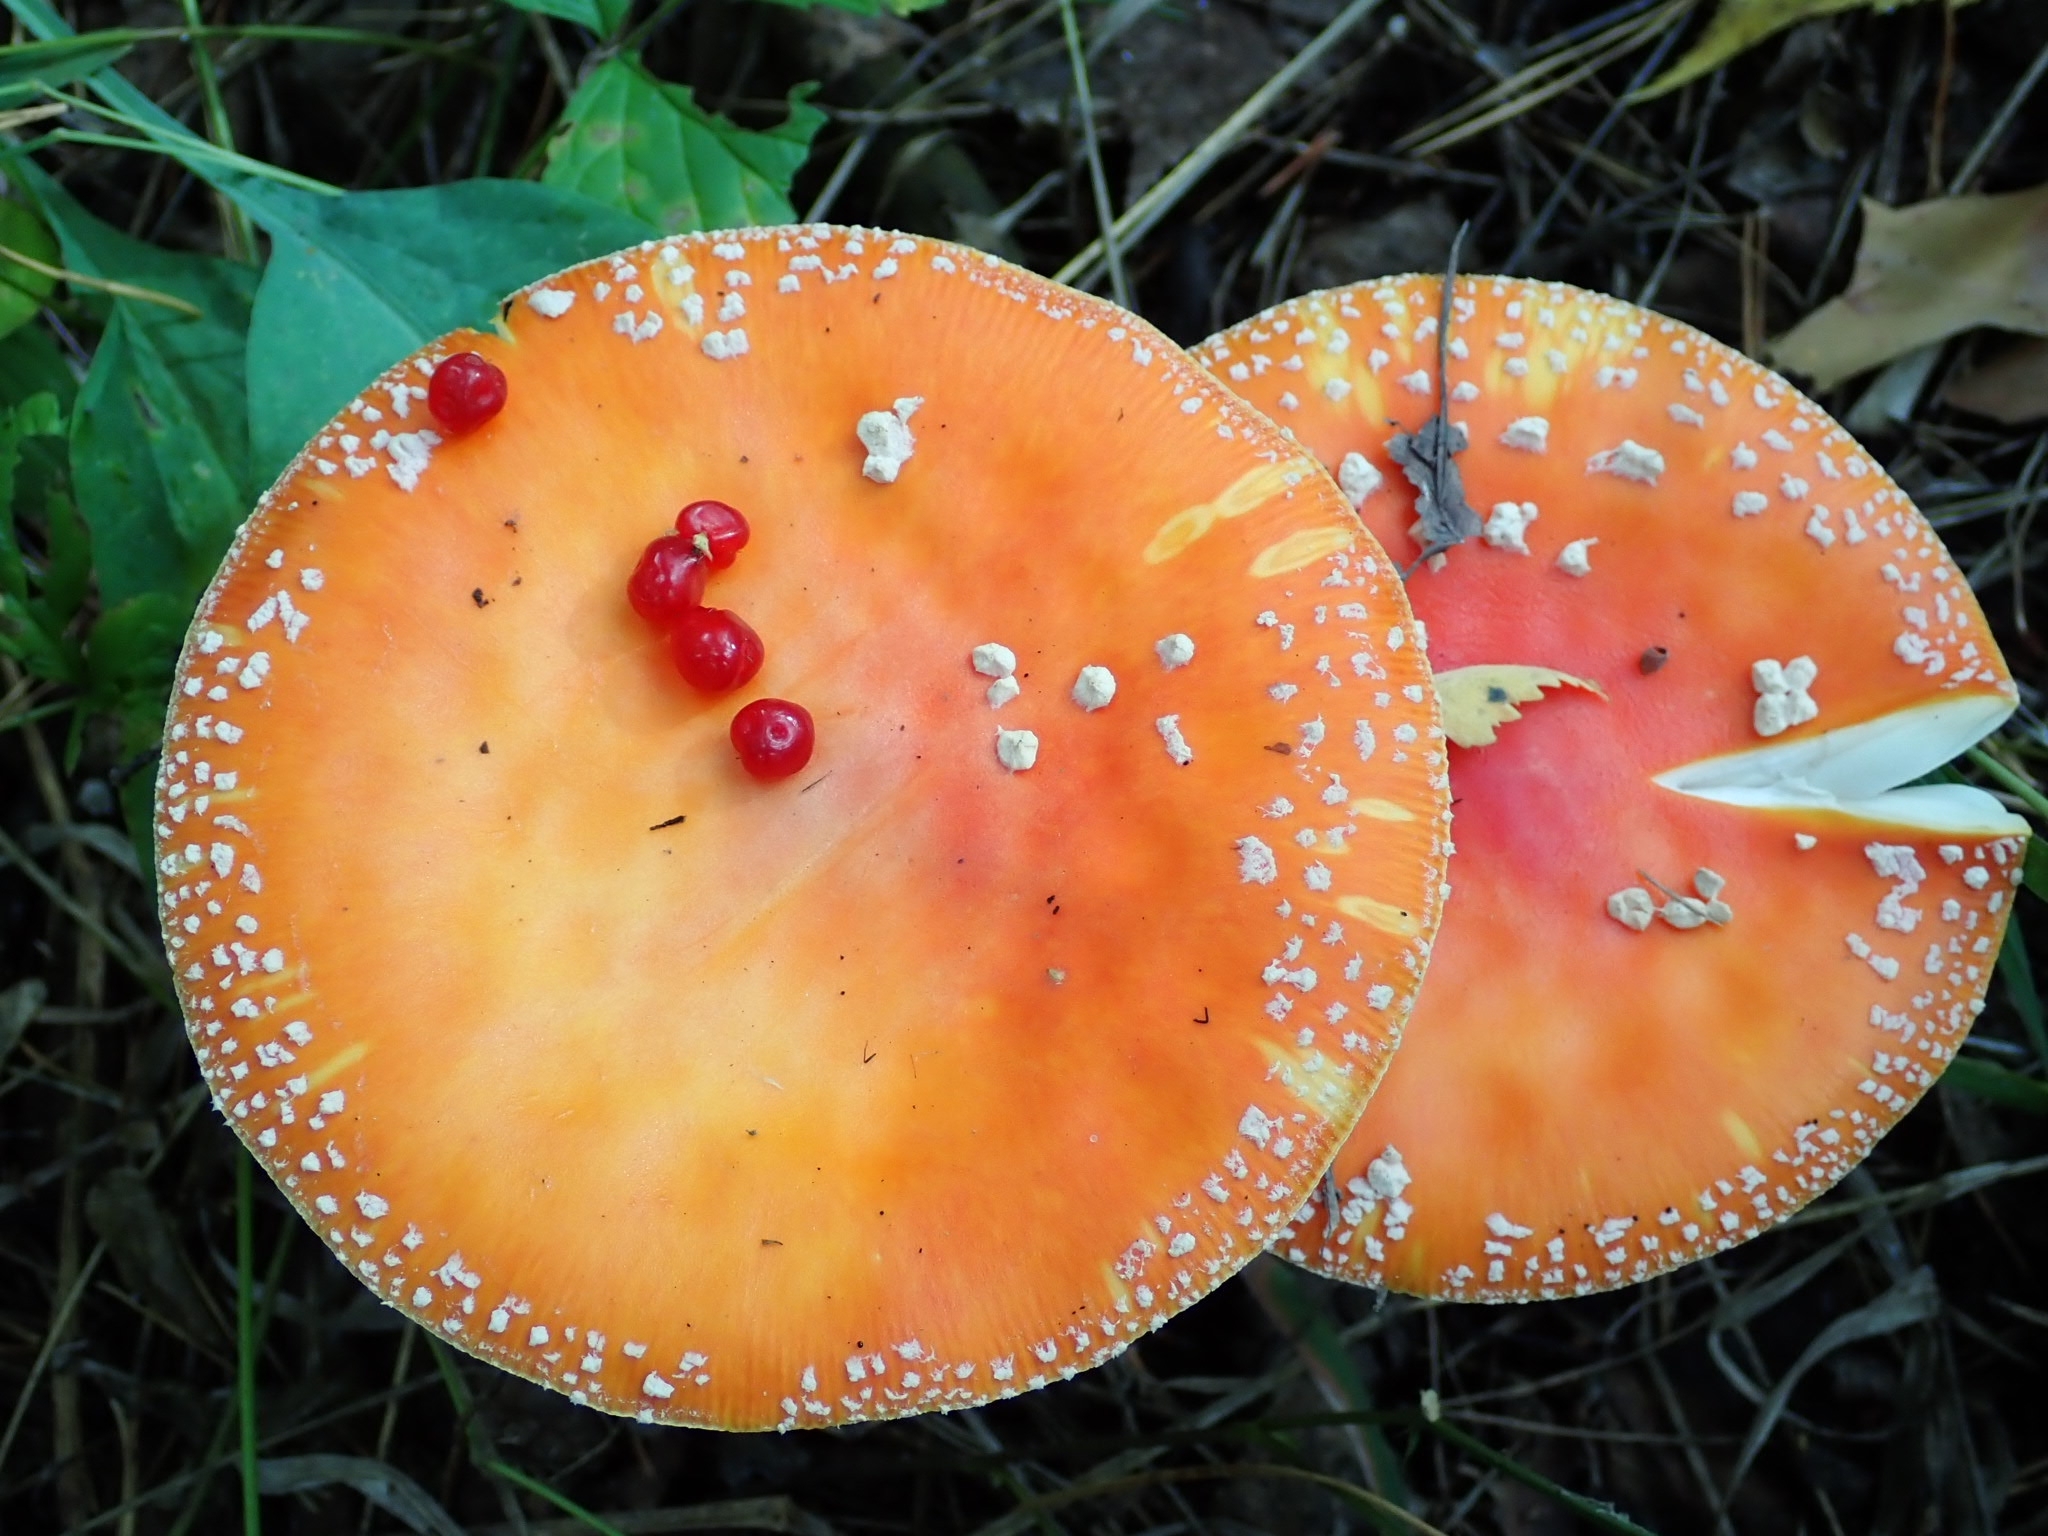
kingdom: Fungi
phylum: Basidiomycota
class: Agaricomycetes
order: Agaricales
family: Amanitaceae
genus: Amanita
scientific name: Amanita muscaria
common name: Fly agaric
